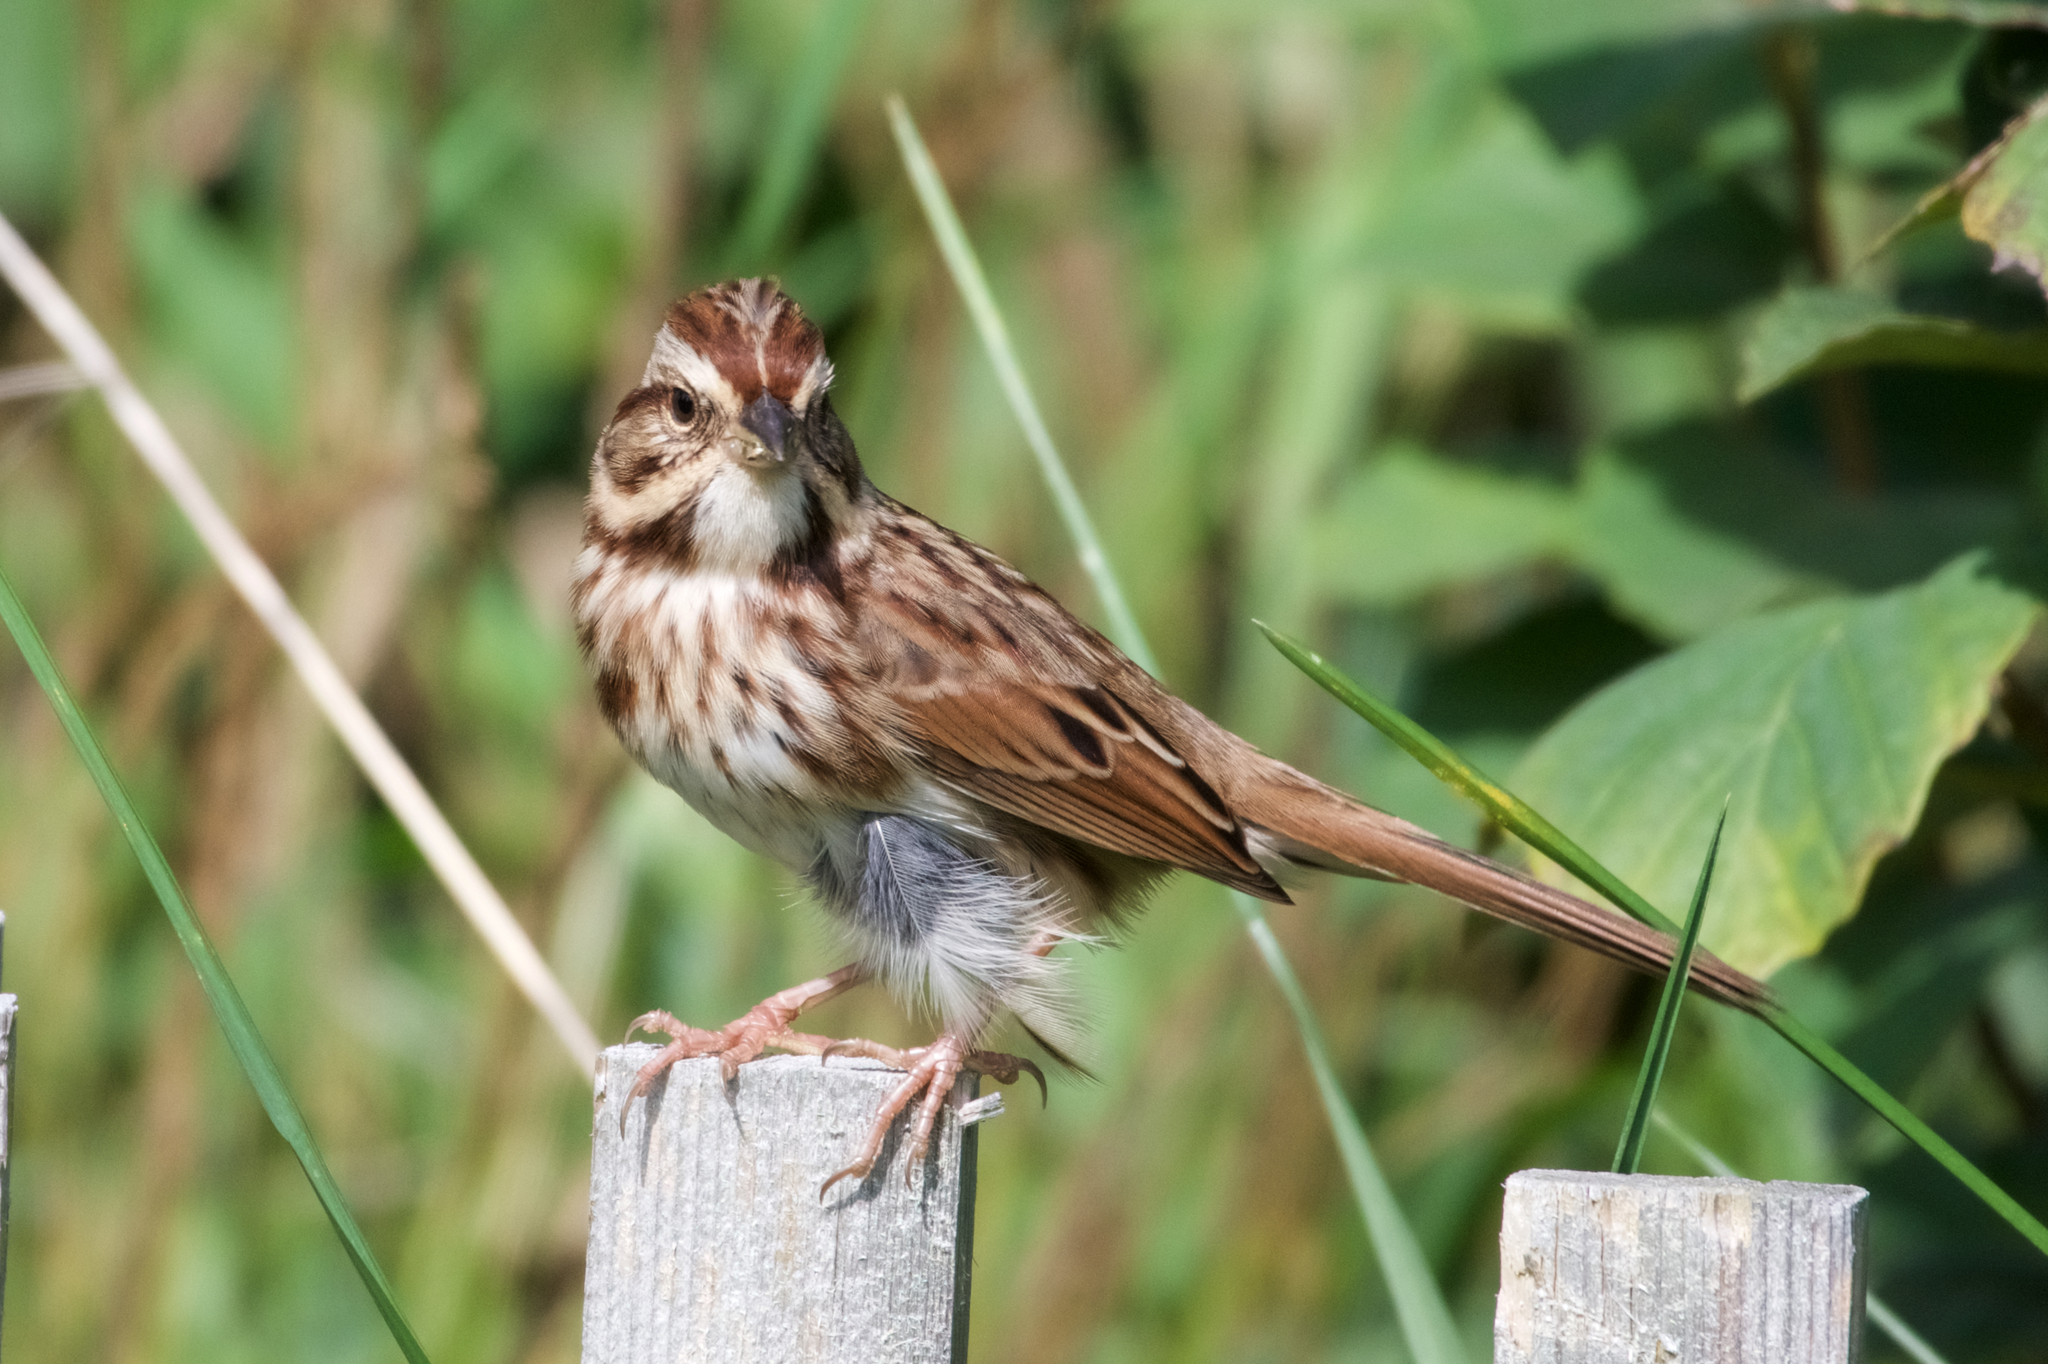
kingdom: Animalia
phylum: Chordata
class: Aves
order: Passeriformes
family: Passerellidae
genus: Melospiza
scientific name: Melospiza melodia
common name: Song sparrow
